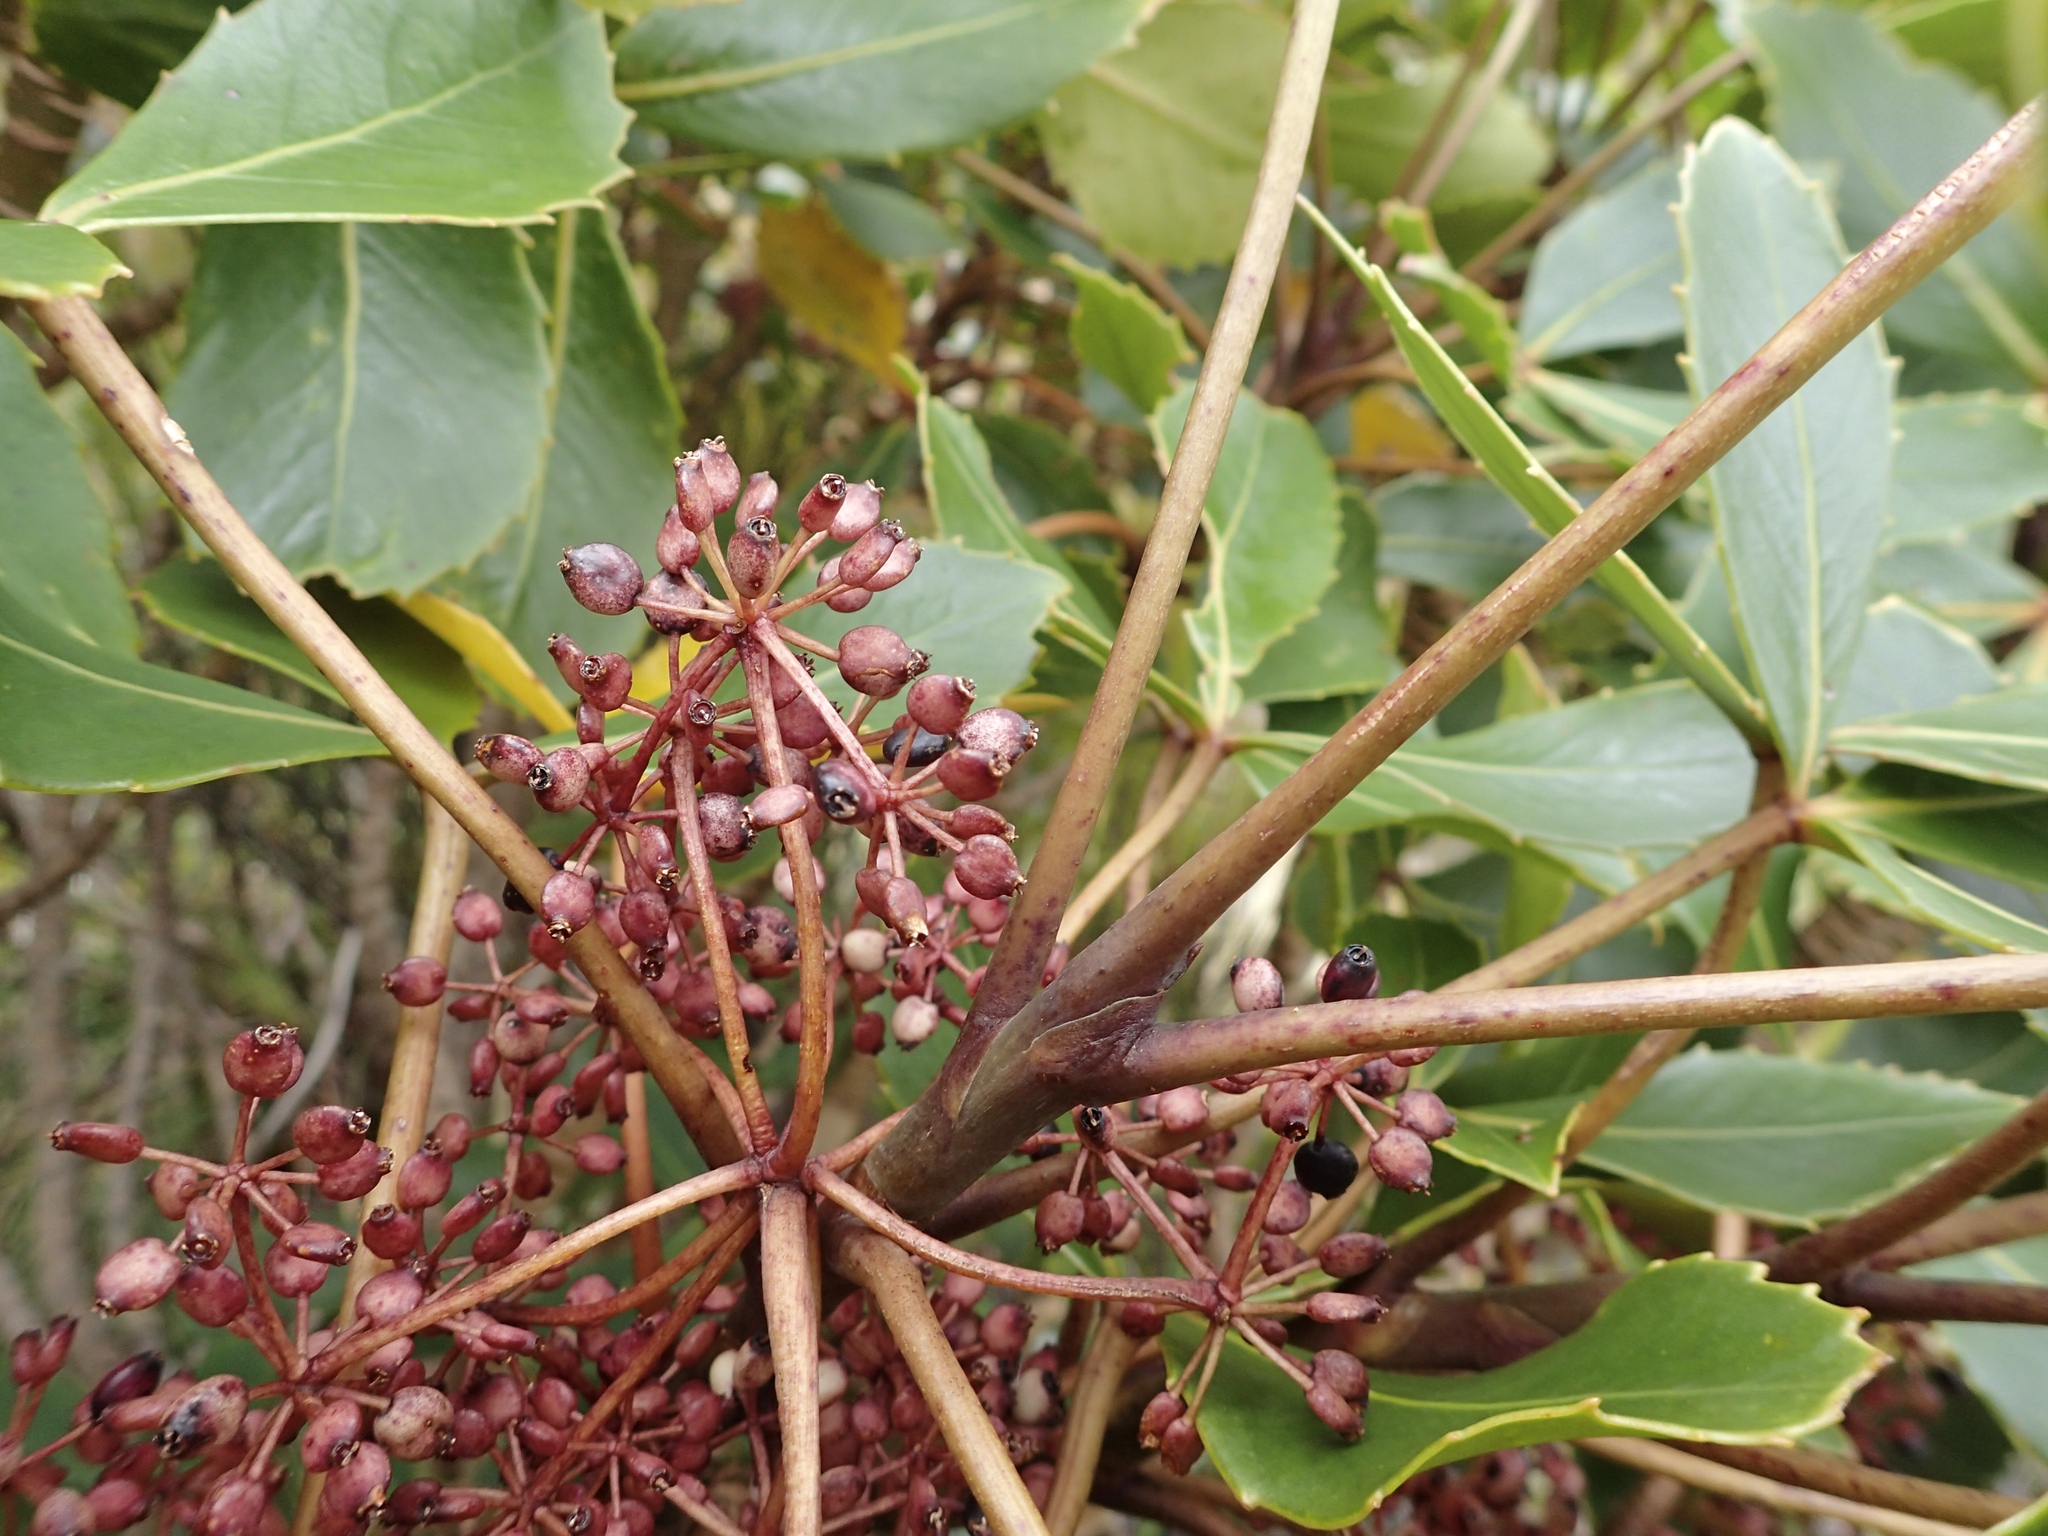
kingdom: Plantae
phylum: Tracheophyta
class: Magnoliopsida
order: Apiales
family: Araliaceae
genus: Neopanax
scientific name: Neopanax colensoi
